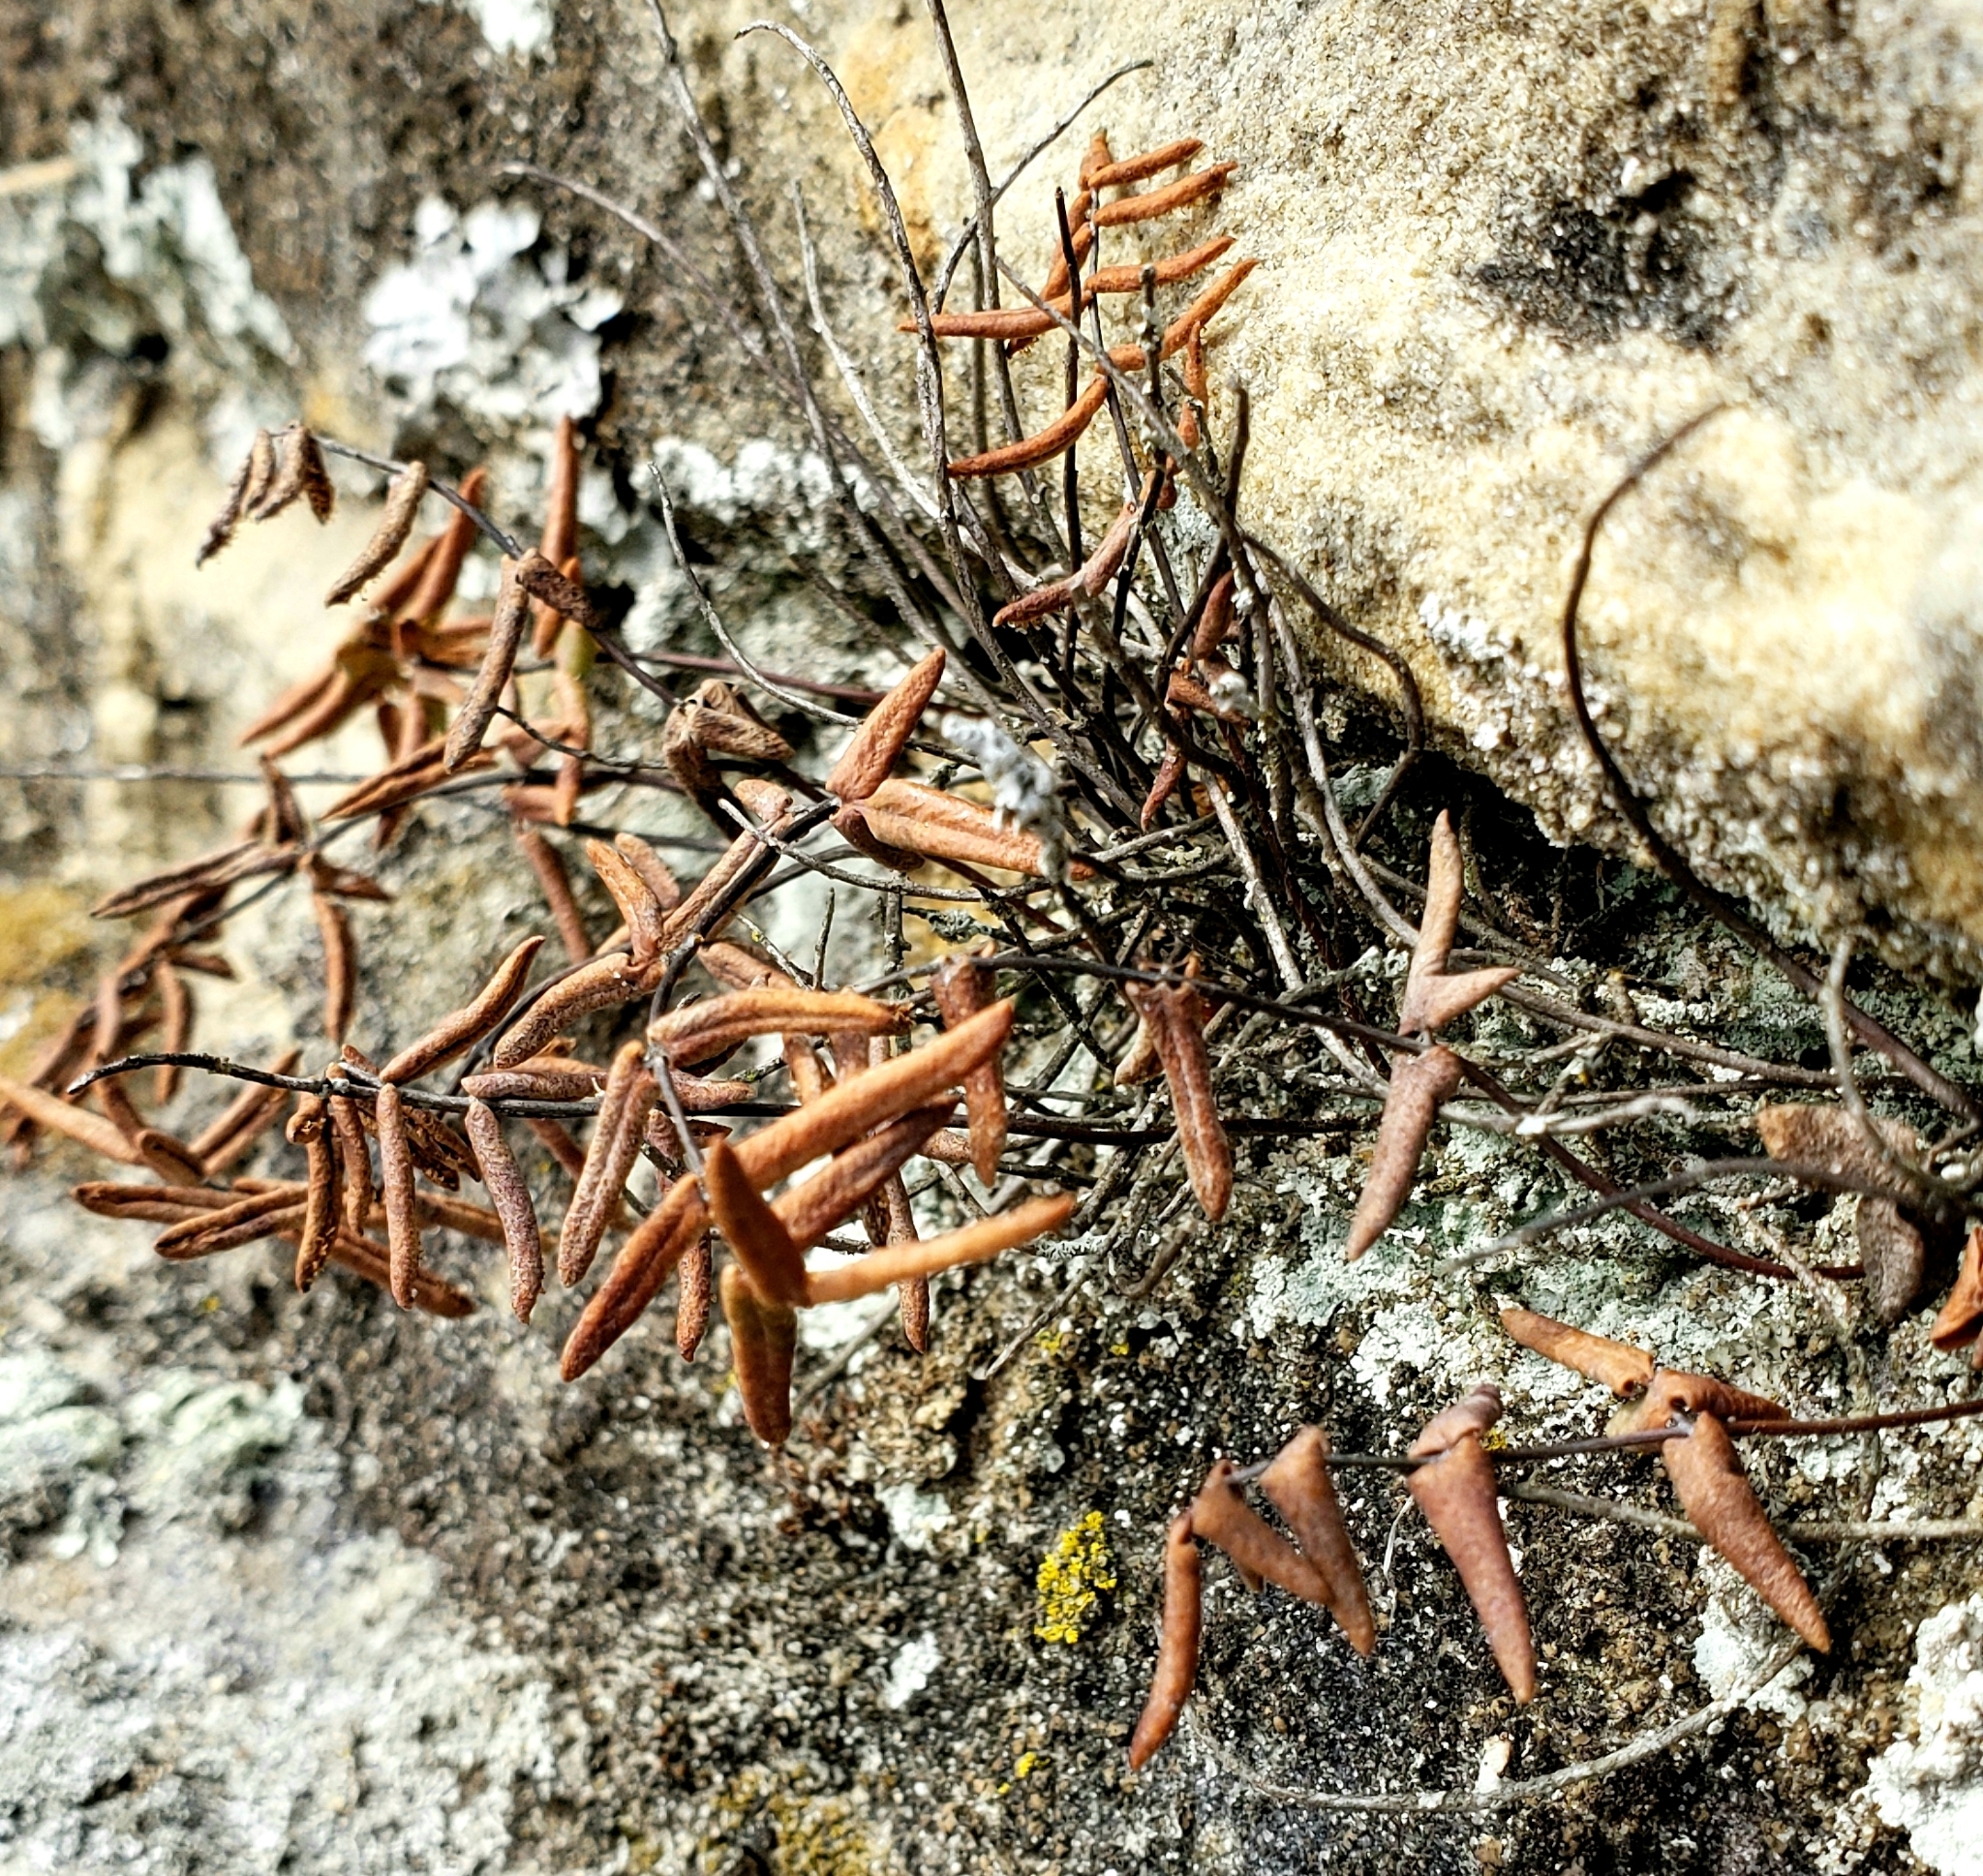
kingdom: Plantae
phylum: Tracheophyta
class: Polypodiopsida
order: Polypodiales
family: Pteridaceae
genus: Pellaea
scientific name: Pellaea glabella
